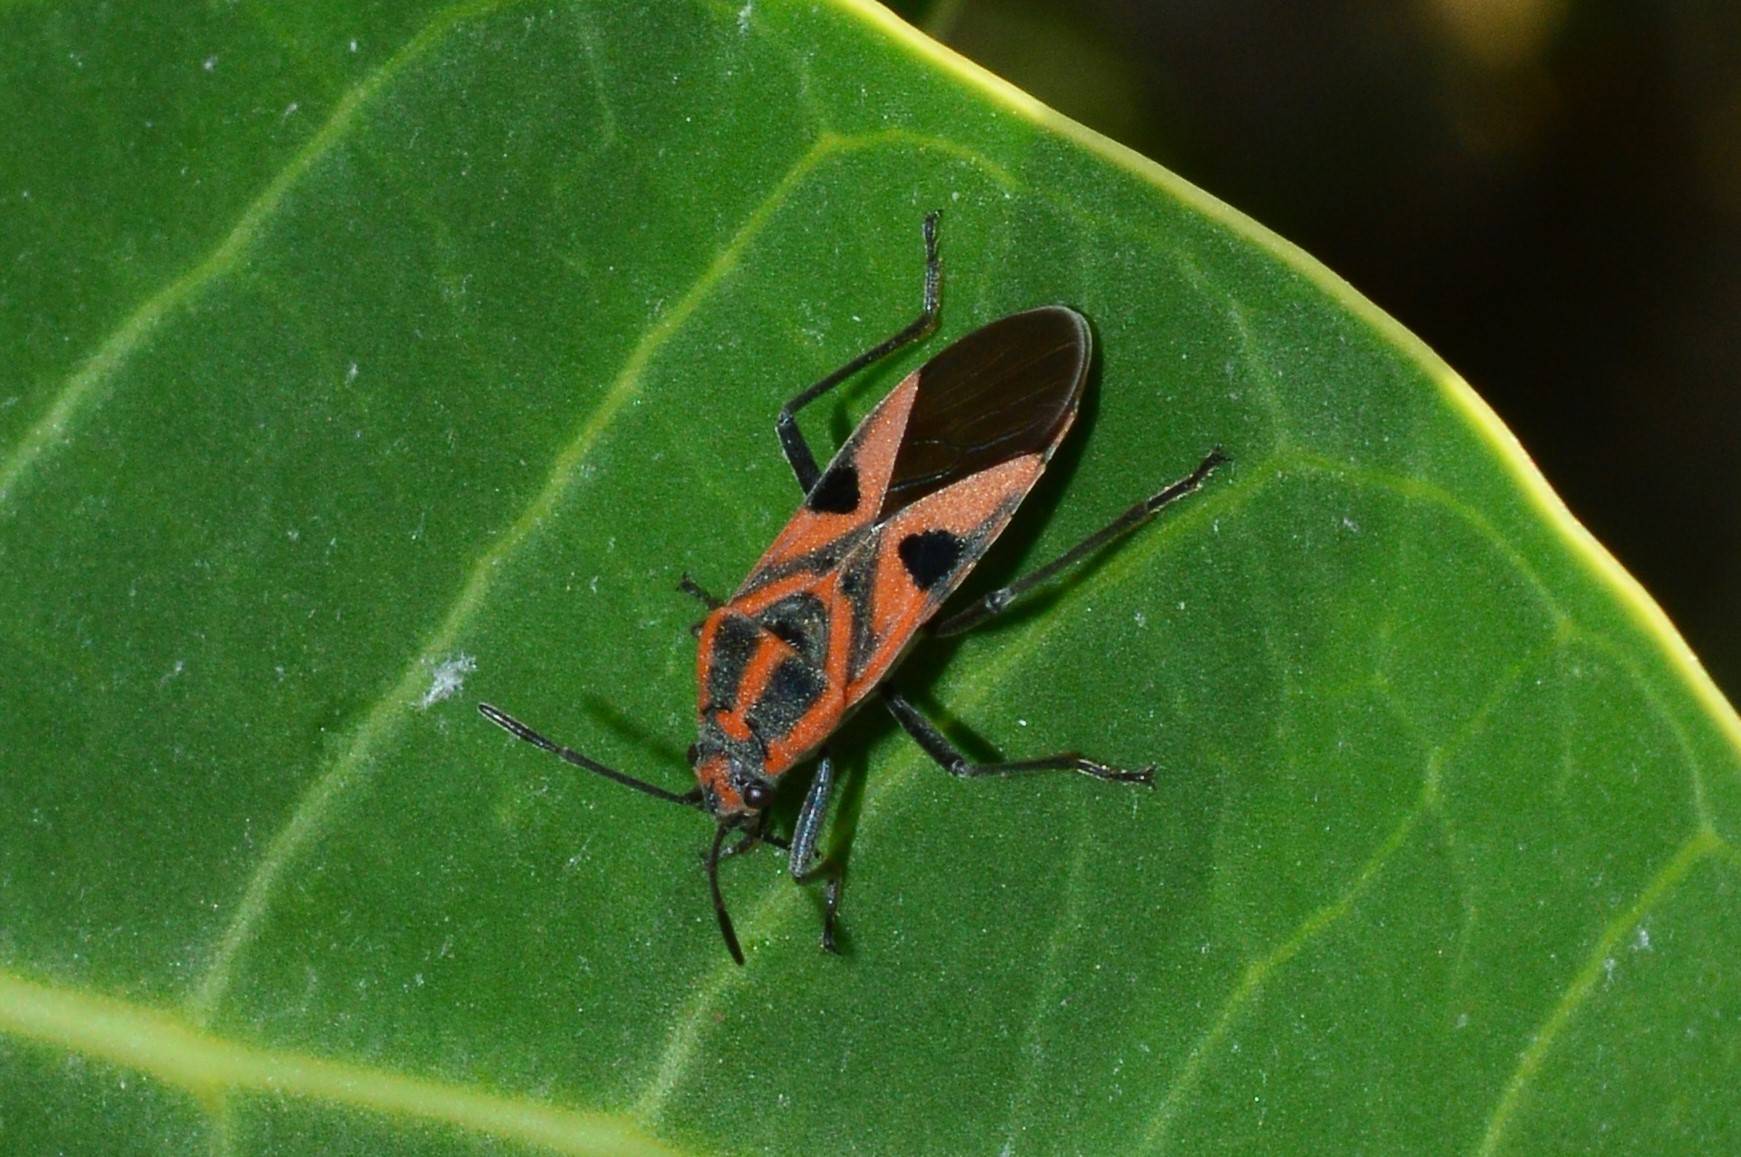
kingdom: Animalia
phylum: Arthropoda
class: Insecta
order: Hemiptera
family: Lygaeidae
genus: Spilostethus
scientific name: Spilostethus hospes
